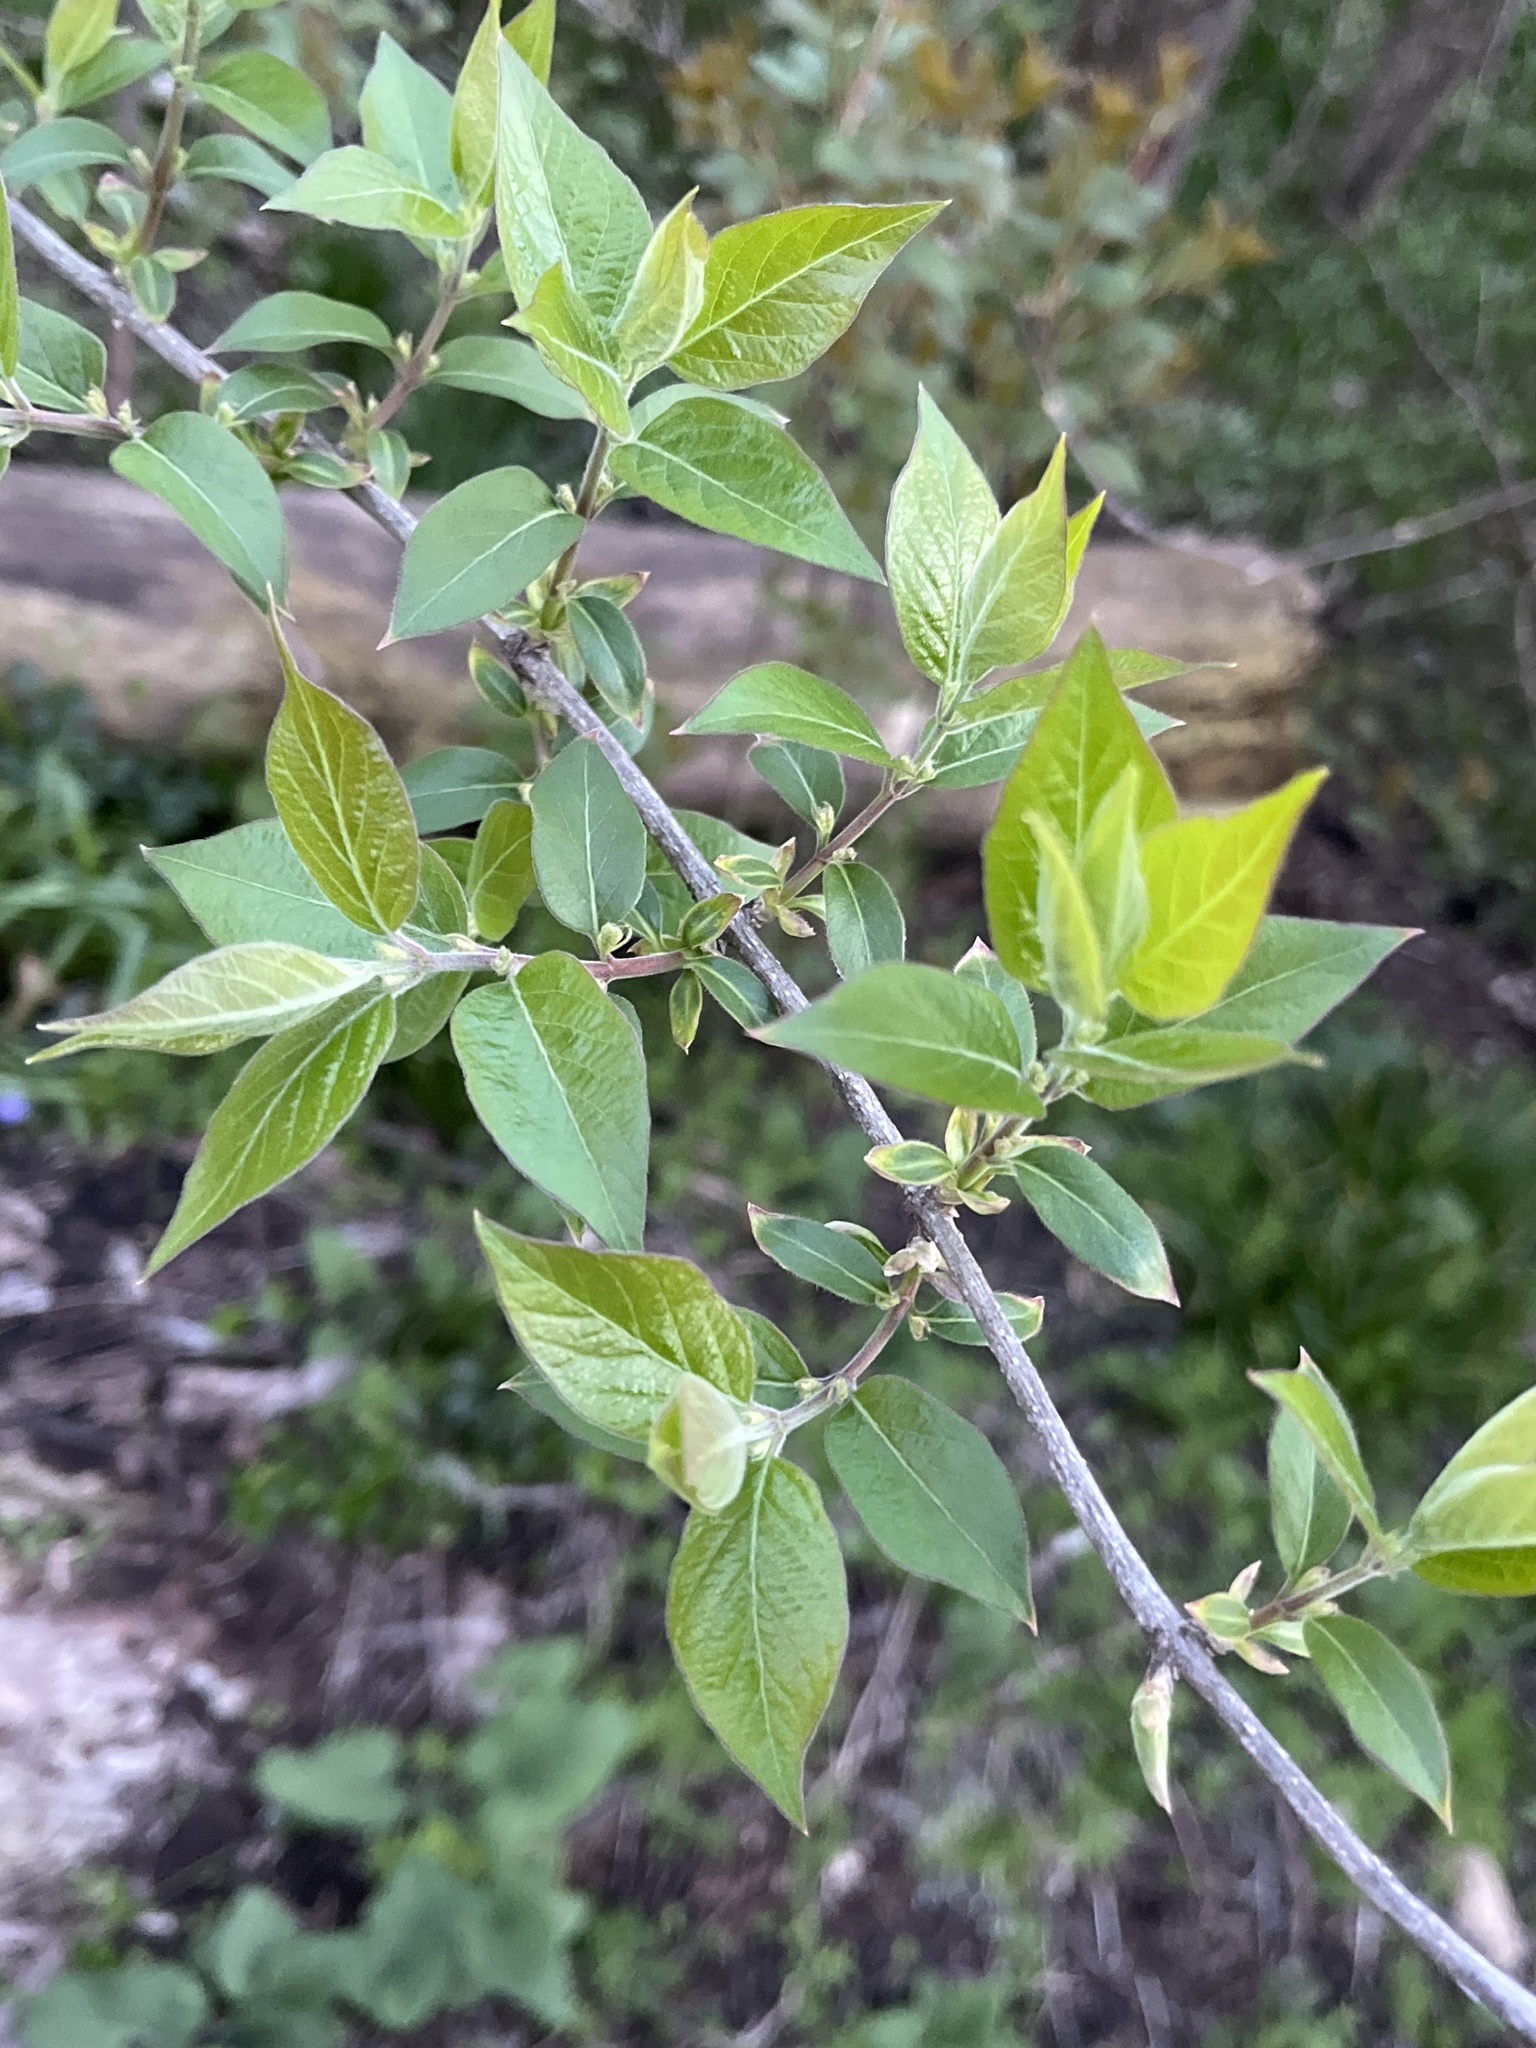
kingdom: Plantae
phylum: Tracheophyta
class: Magnoliopsida
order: Dipsacales
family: Caprifoliaceae
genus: Lonicera
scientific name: Lonicera maackii
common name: Amur honeysuckle
